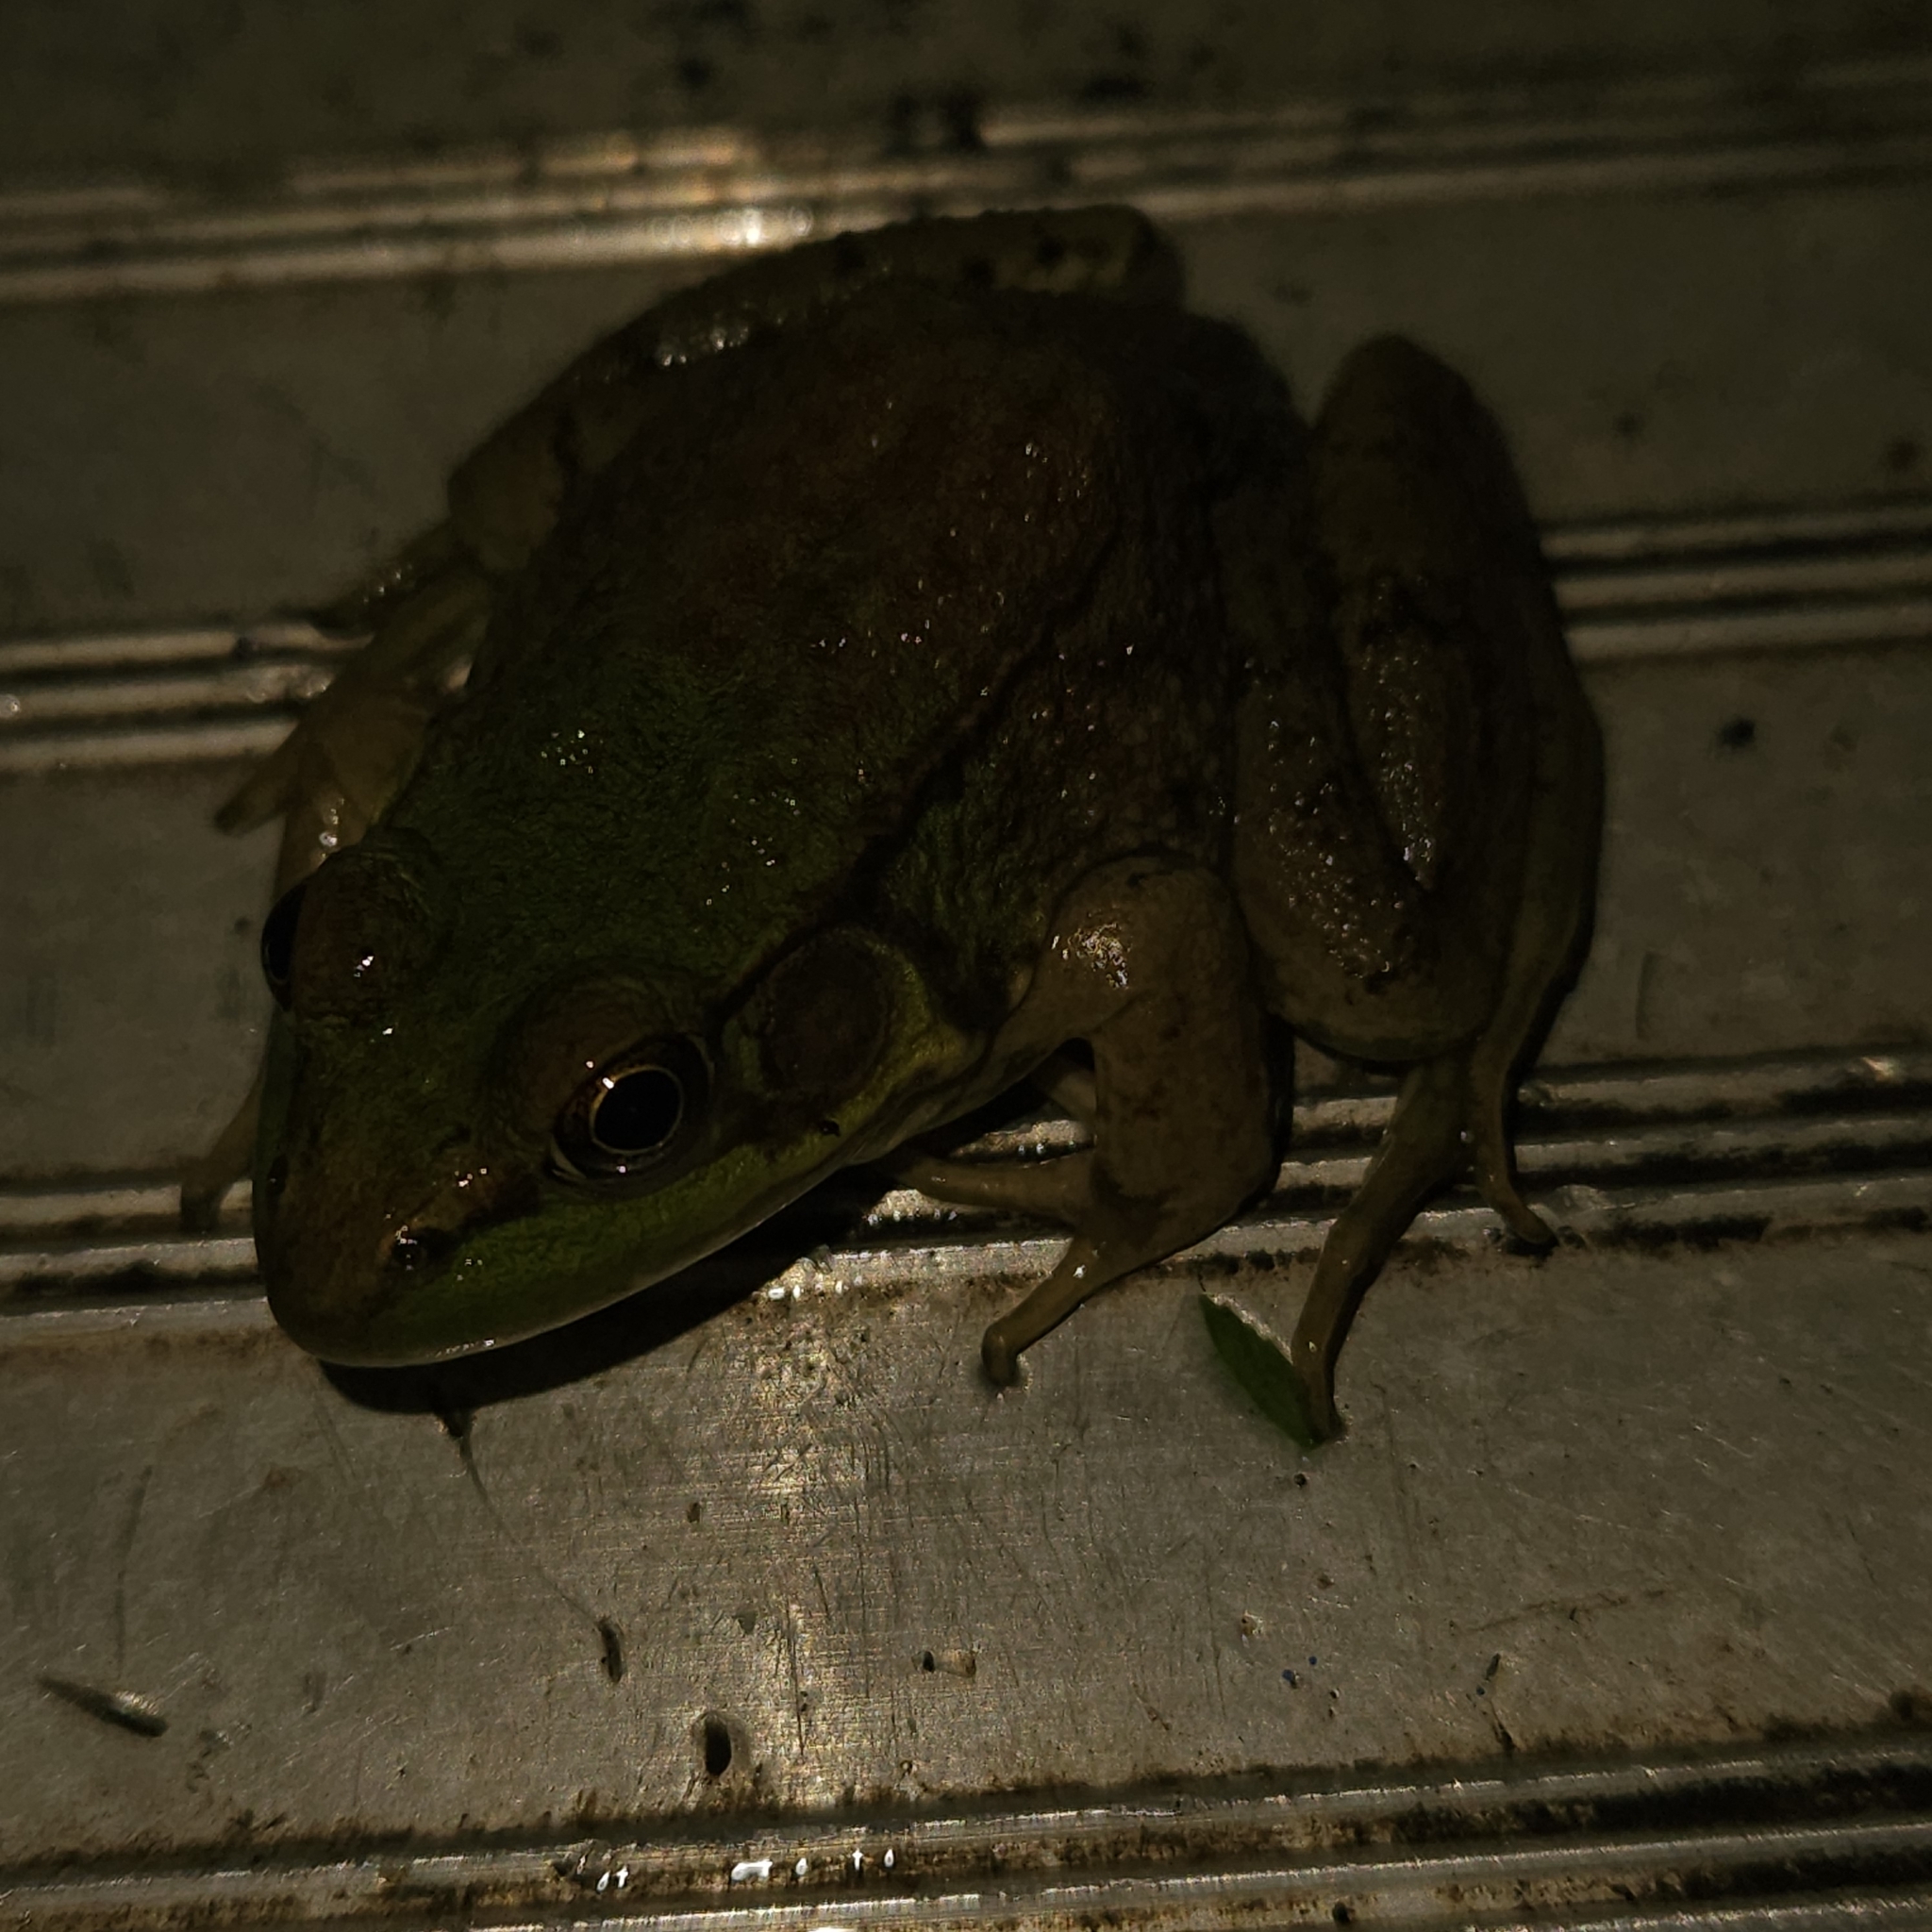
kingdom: Animalia
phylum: Chordata
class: Amphibia
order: Anura
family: Ranidae
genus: Lithobates
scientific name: Lithobates clamitans
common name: Green frog
